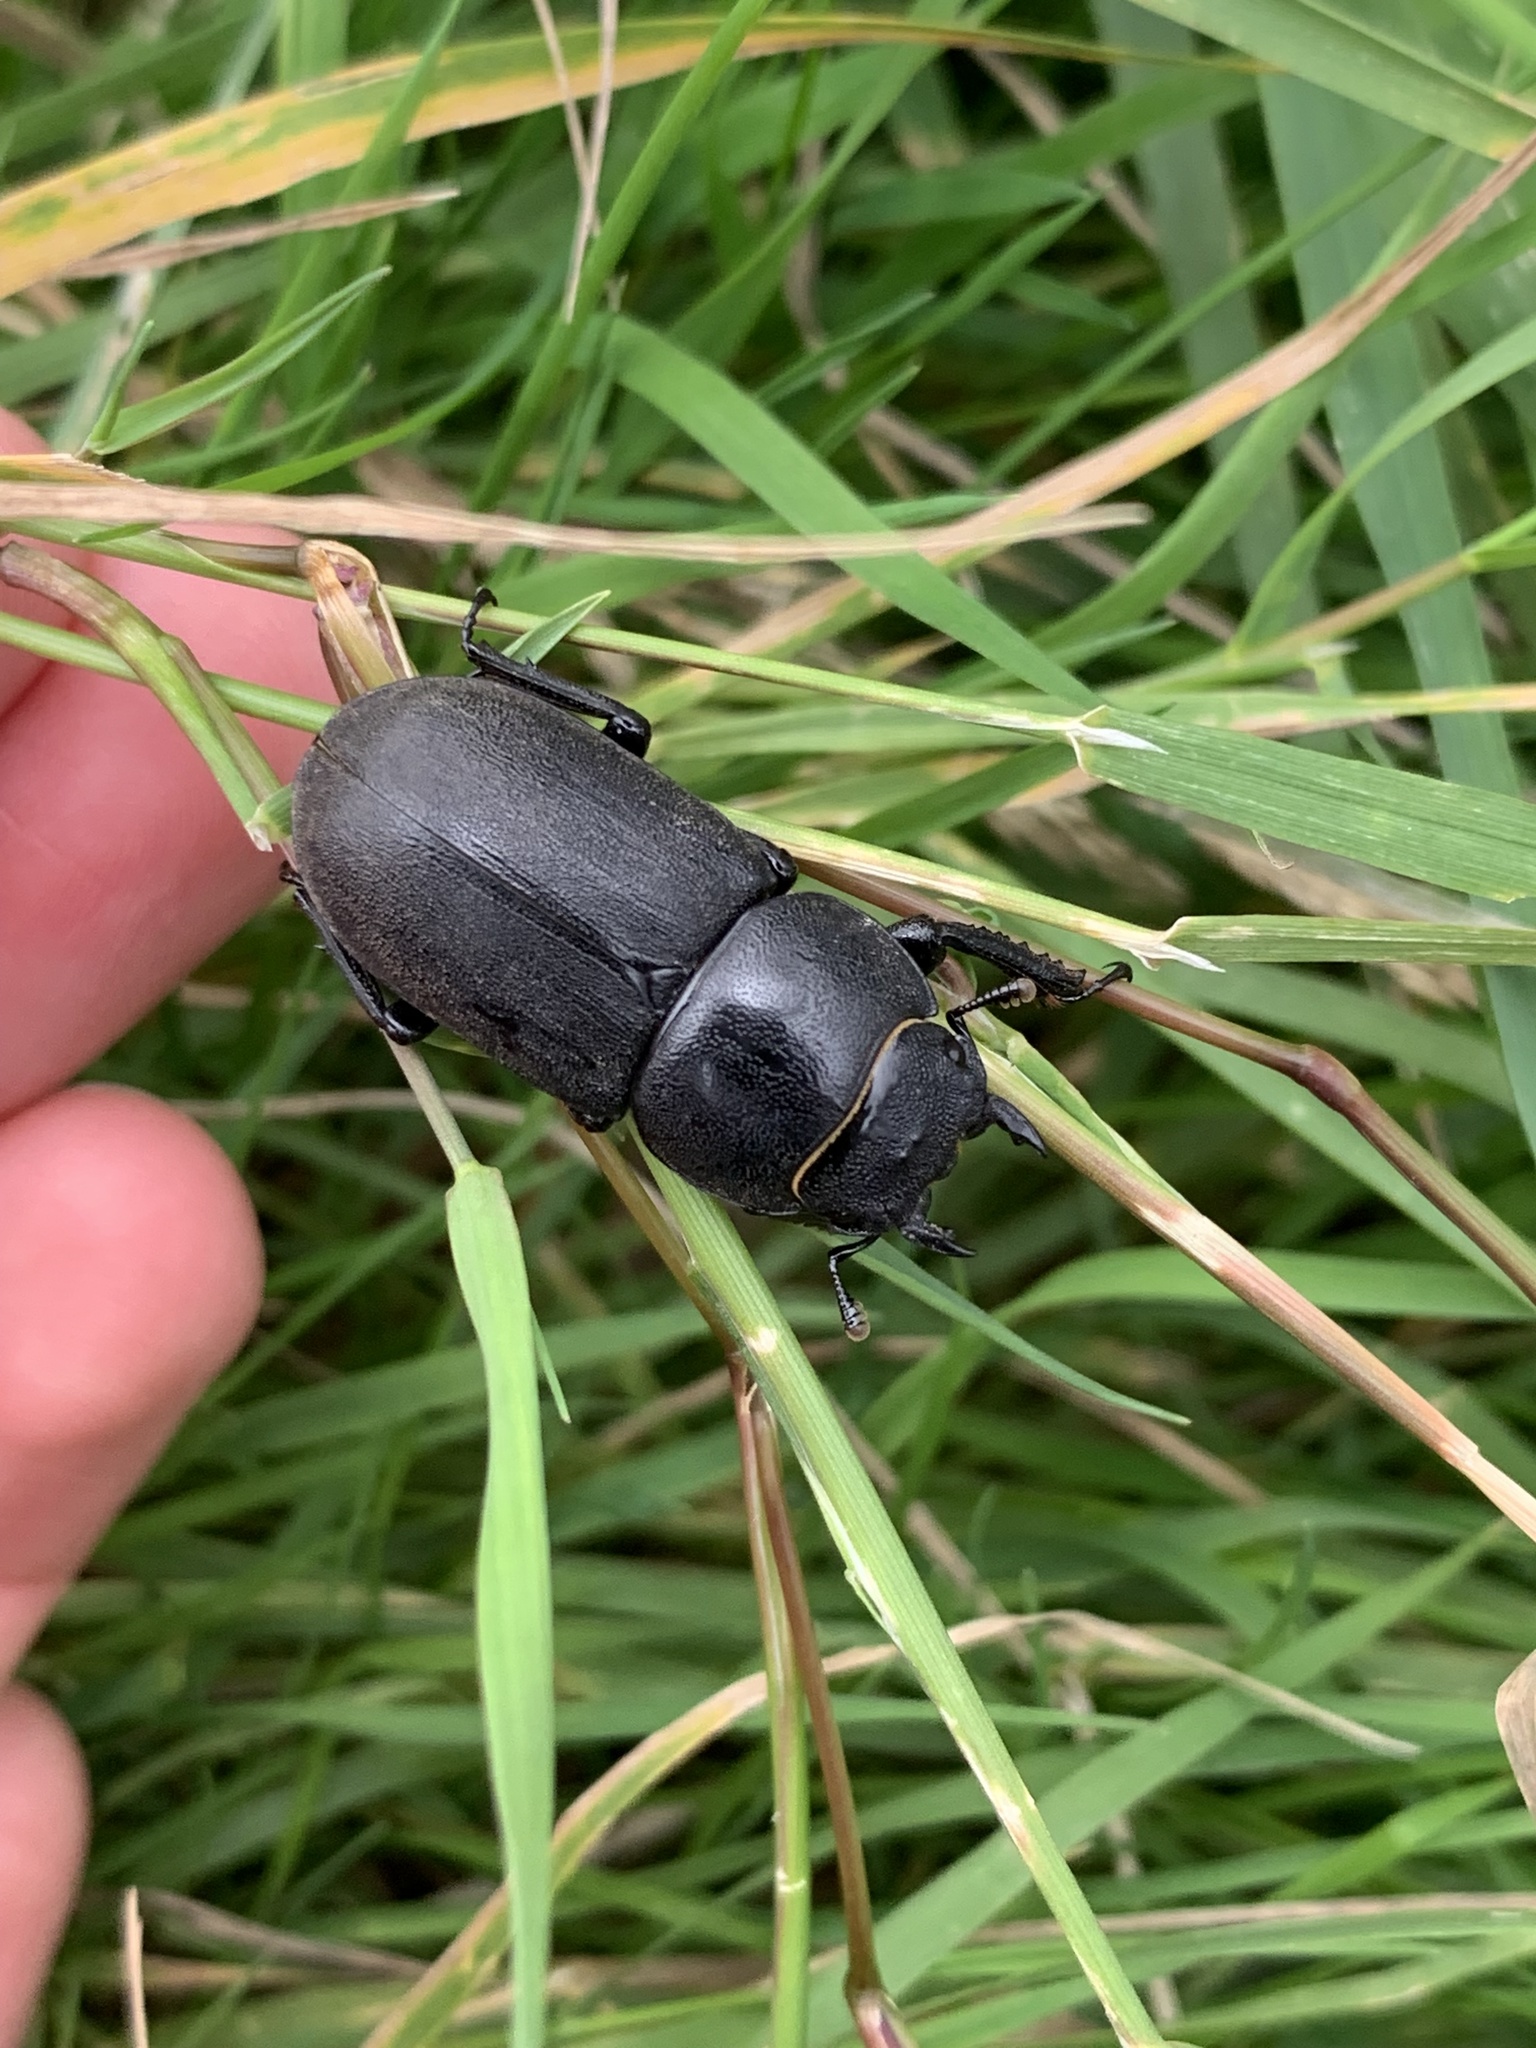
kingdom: Animalia
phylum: Arthropoda
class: Insecta
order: Coleoptera
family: Lucanidae
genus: Dorcus
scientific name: Dorcus parallelipipedus
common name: Lesser stag beetle
